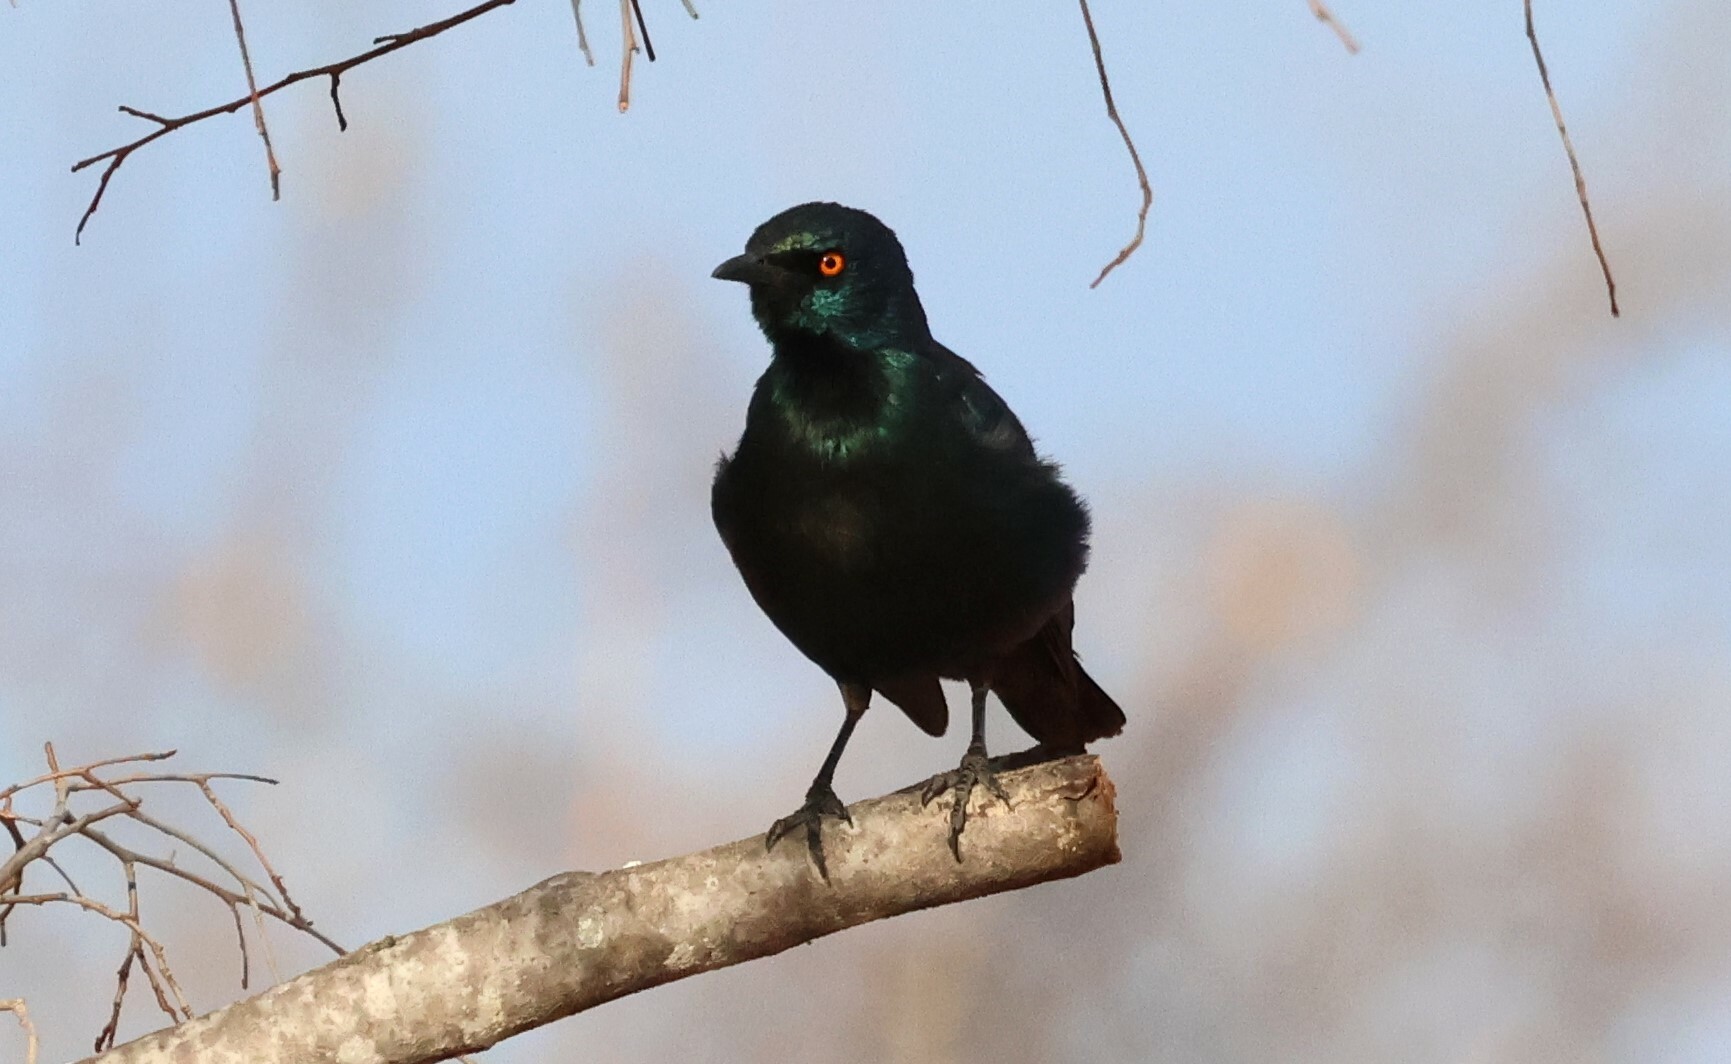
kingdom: Animalia
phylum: Chordata
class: Aves
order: Passeriformes
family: Sturnidae
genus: Lamprotornis
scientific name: Lamprotornis nitens
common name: Cape starling
